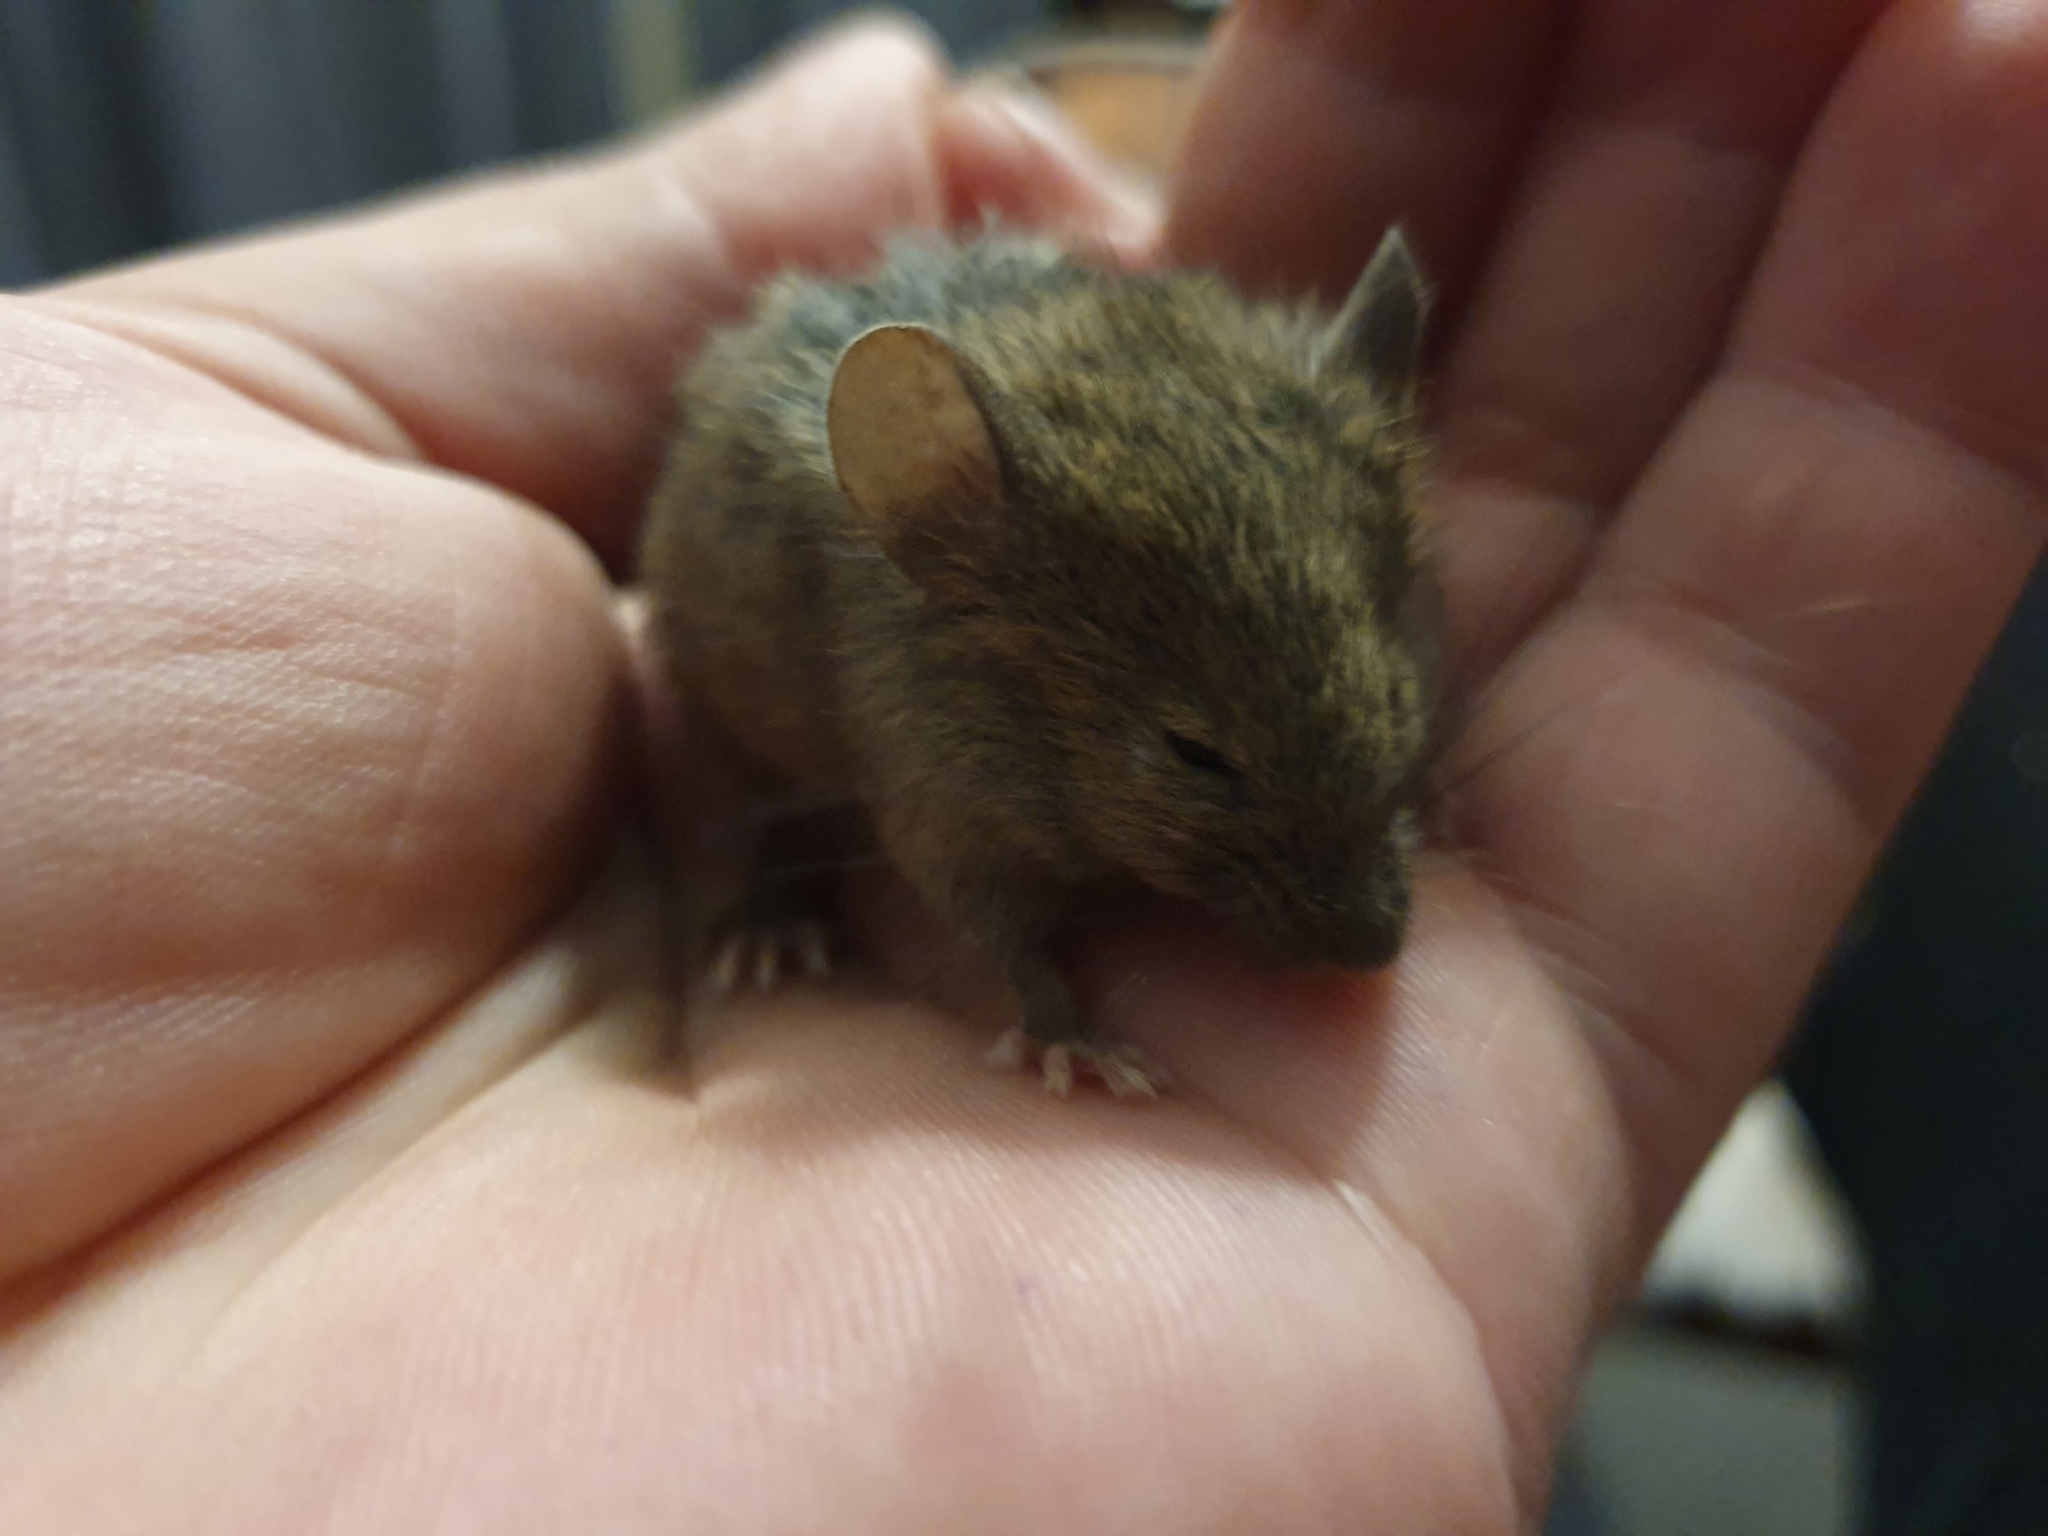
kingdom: Animalia
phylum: Chordata
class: Mammalia
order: Rodentia
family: Muridae
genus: Mus
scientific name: Mus musculus
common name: House mouse
